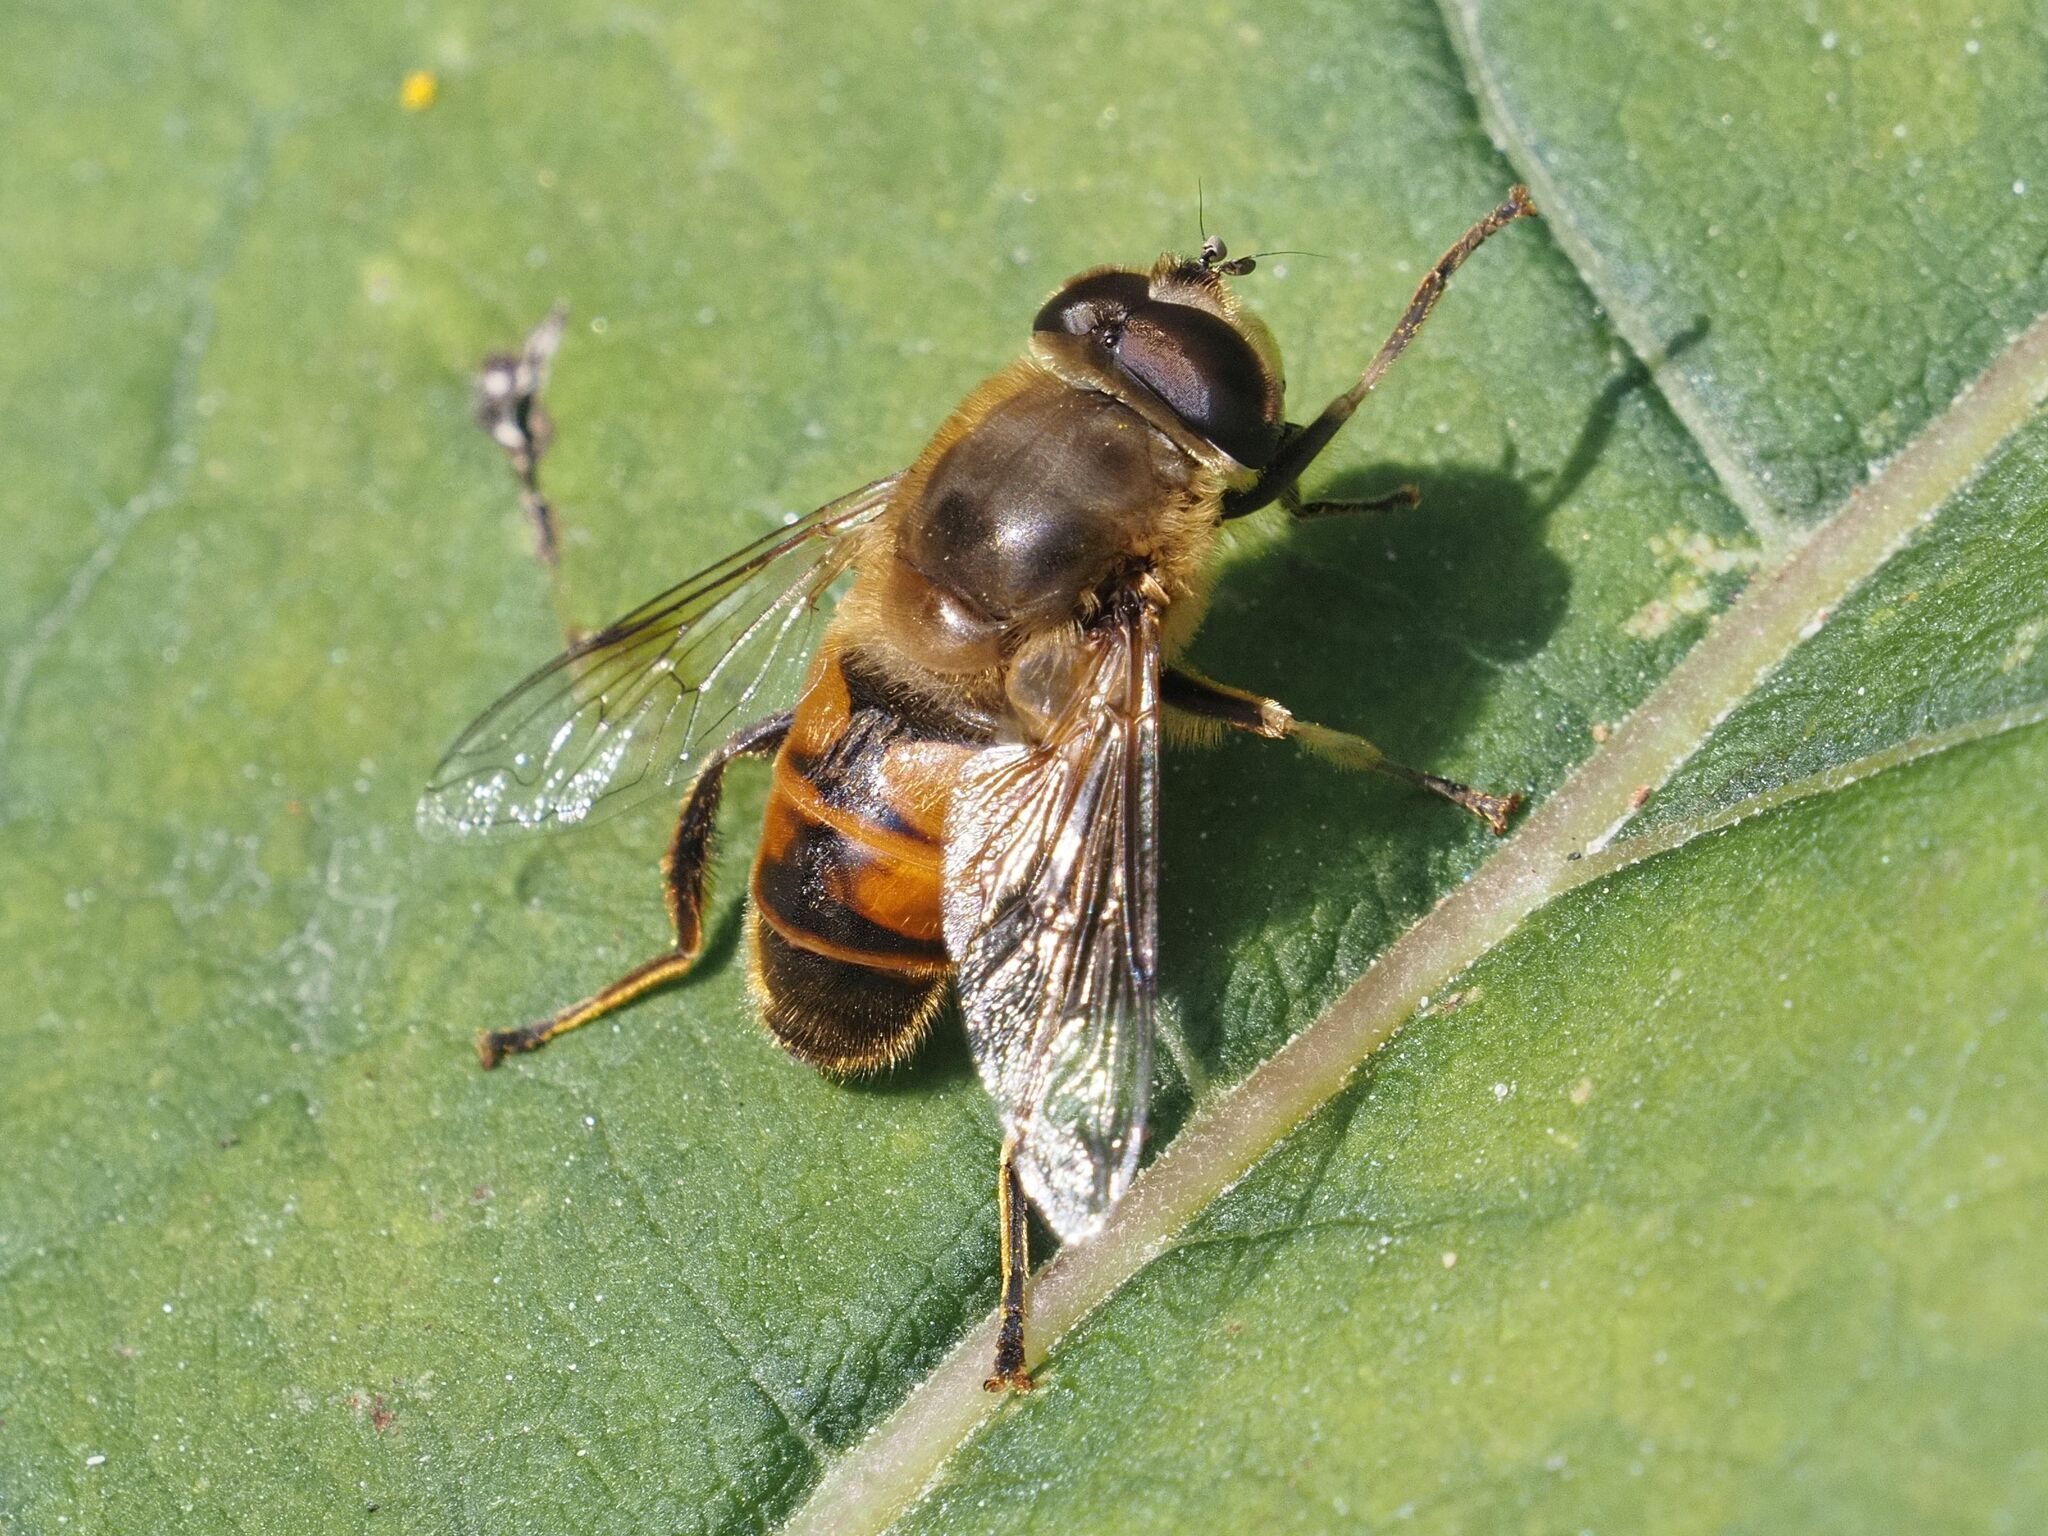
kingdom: Animalia
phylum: Arthropoda
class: Insecta
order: Diptera
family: Syrphidae
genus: Eristalis
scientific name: Eristalis tenax
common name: Drone fly
